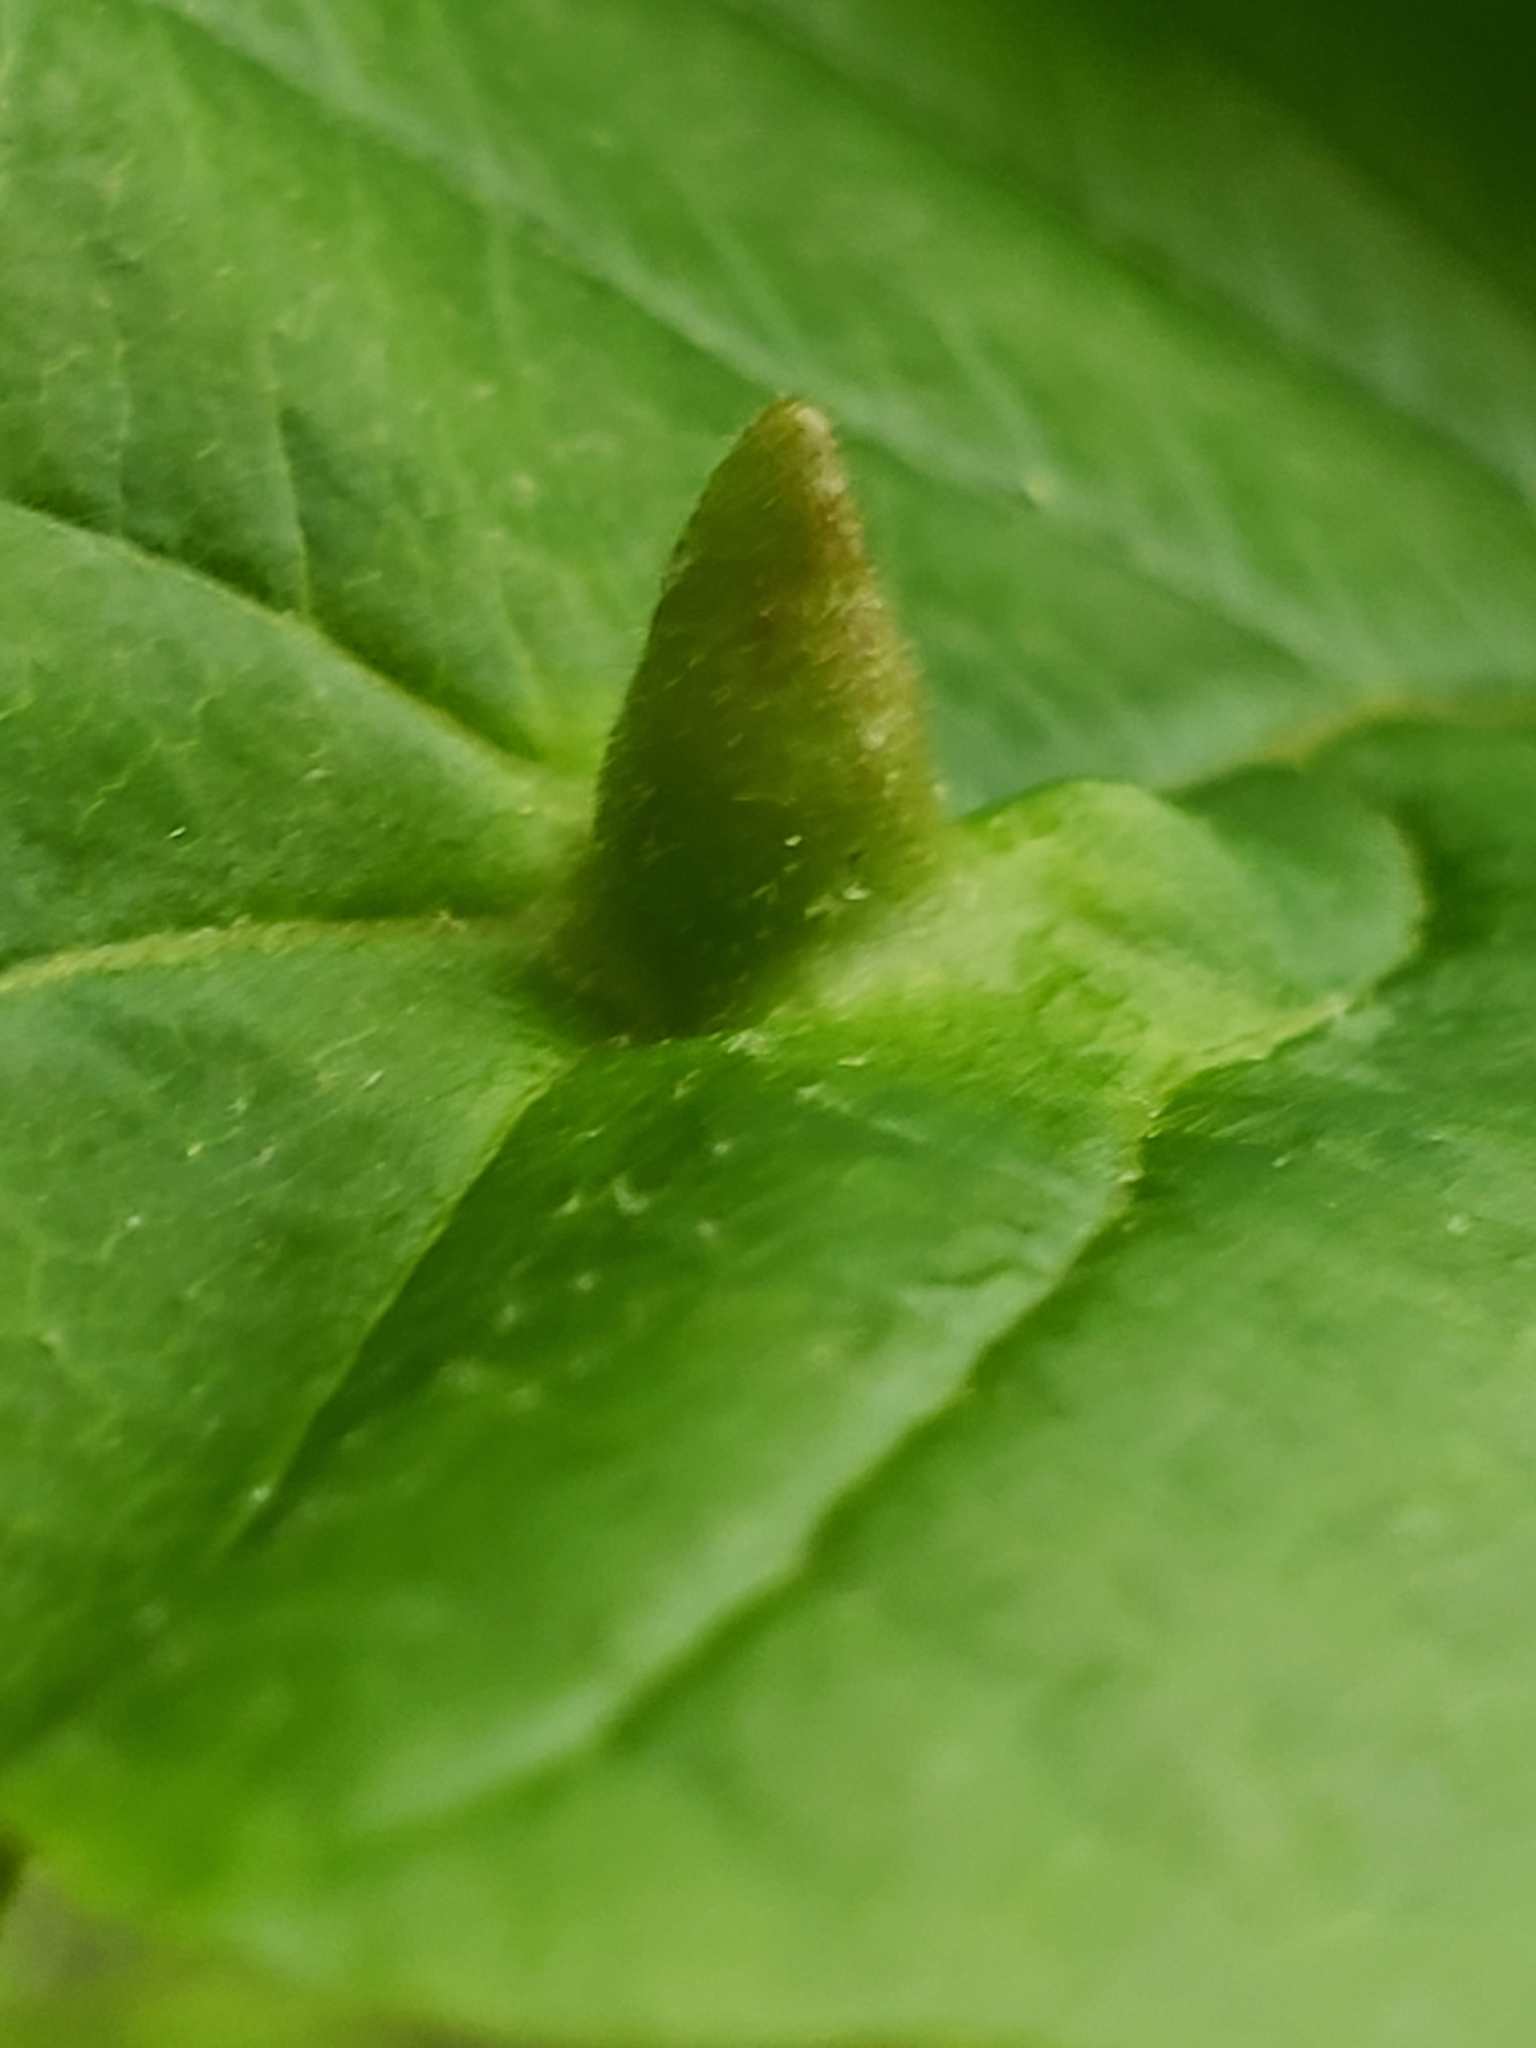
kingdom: Animalia
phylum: Arthropoda
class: Insecta
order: Hemiptera
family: Aphididae
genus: Hormaphis
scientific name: Hormaphis hamamelidis
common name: Witch-hazel cone gall aphid
